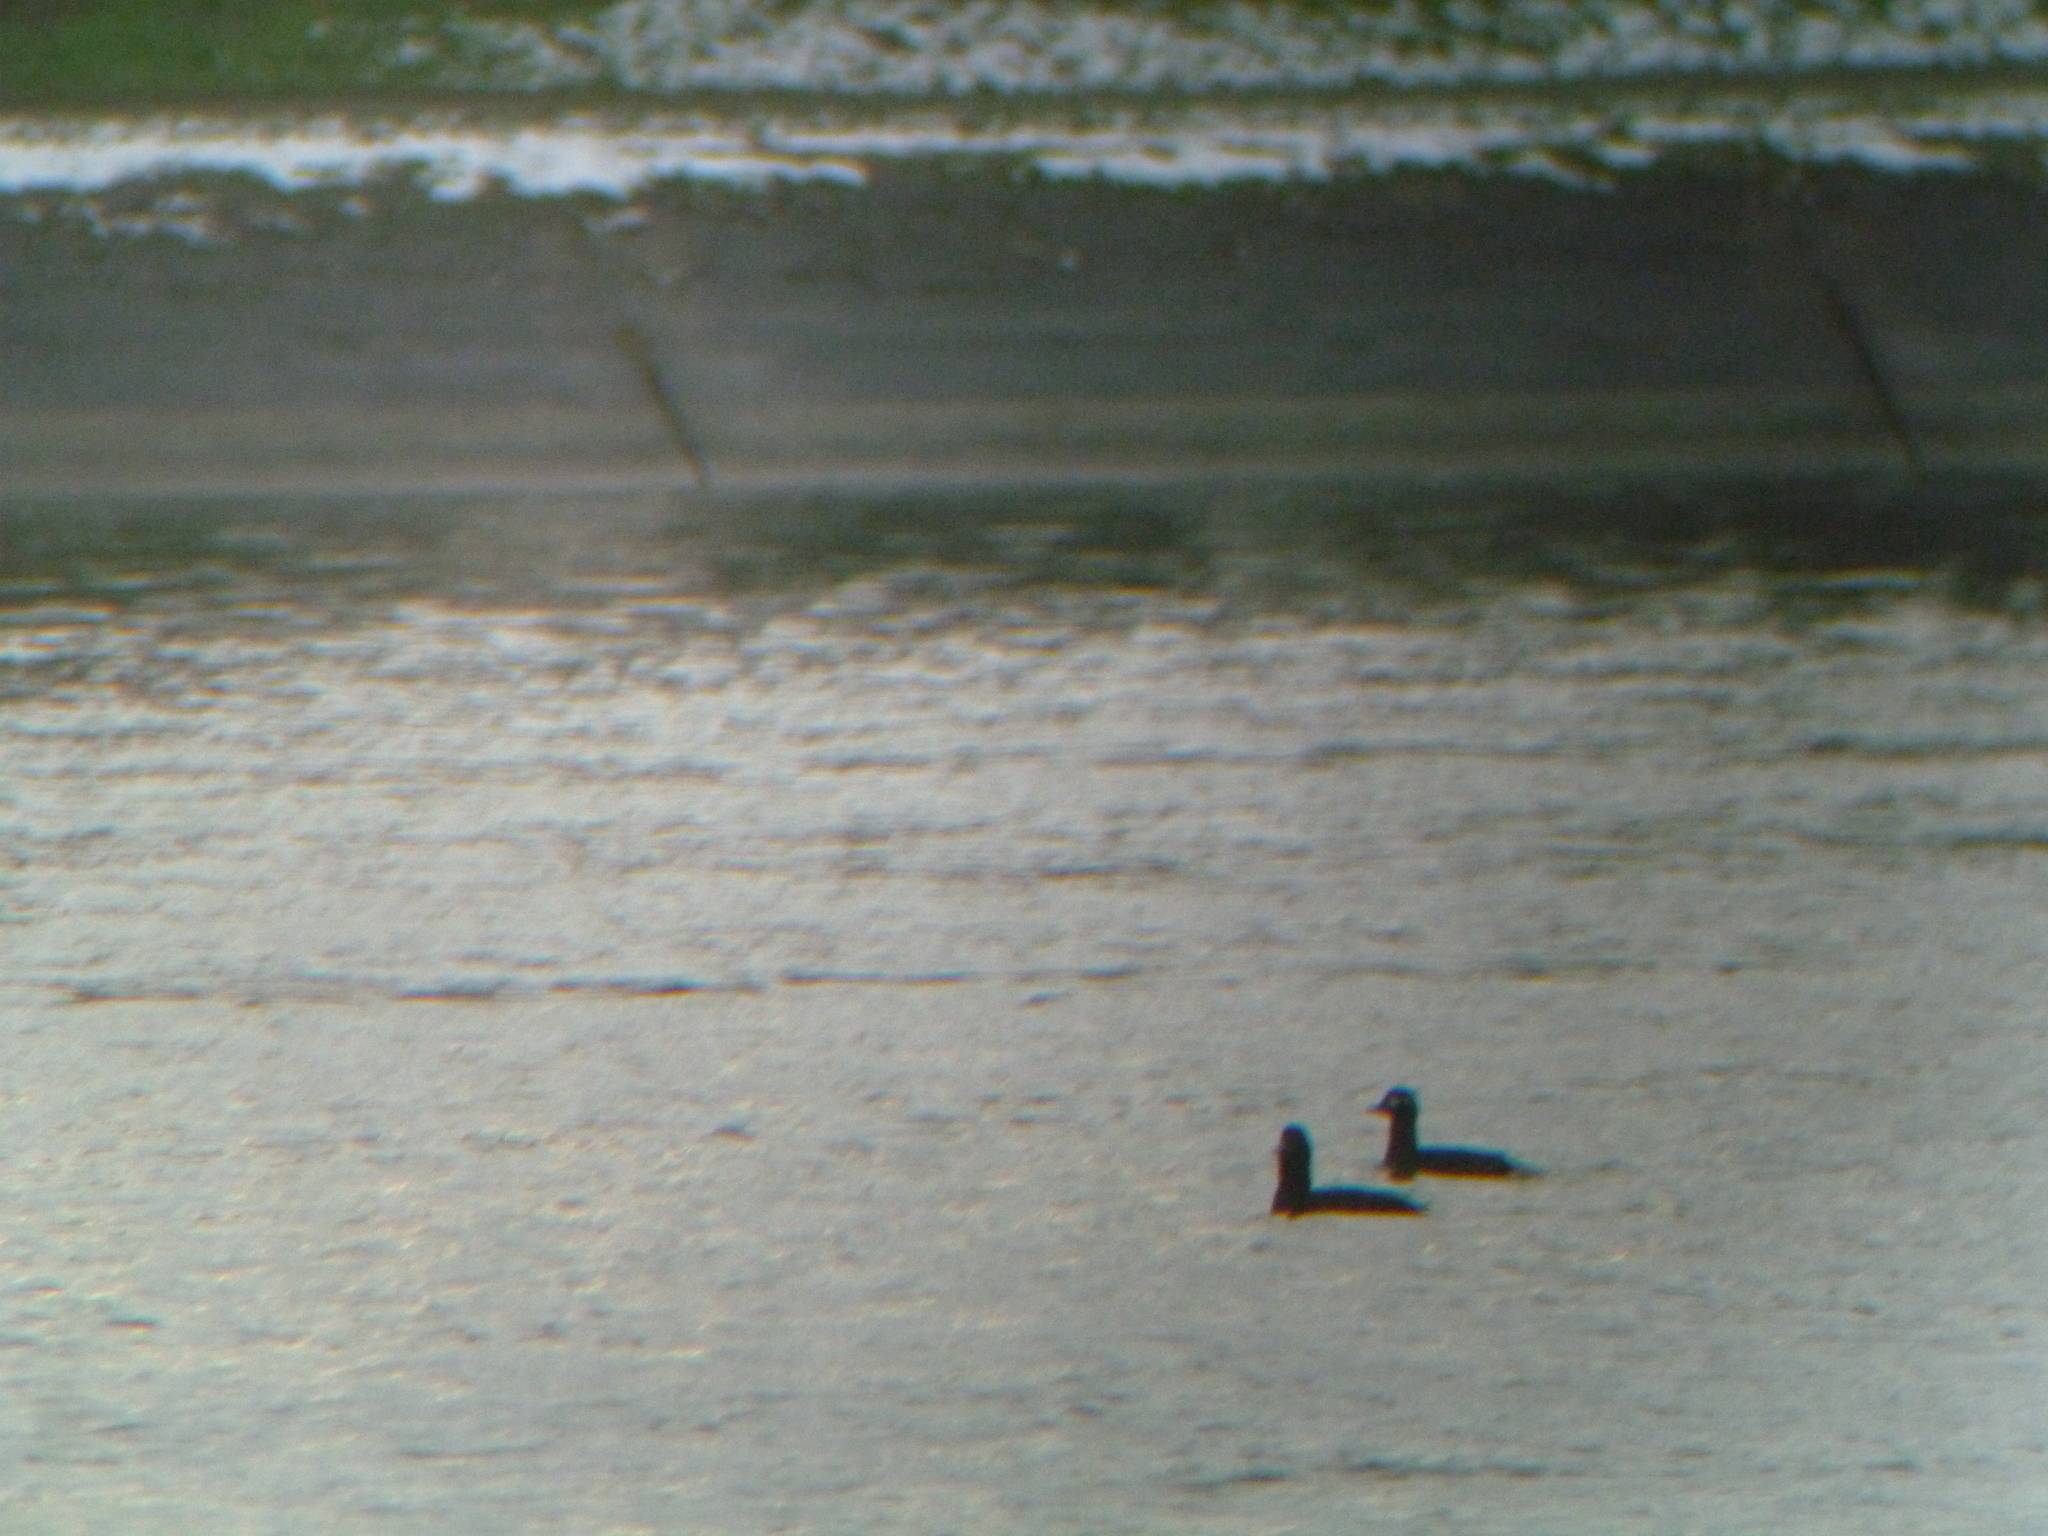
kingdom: Animalia
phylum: Chordata
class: Aves
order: Anseriformes
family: Anatidae
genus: Melanitta
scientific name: Melanitta fusca
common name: Velvet scoter
